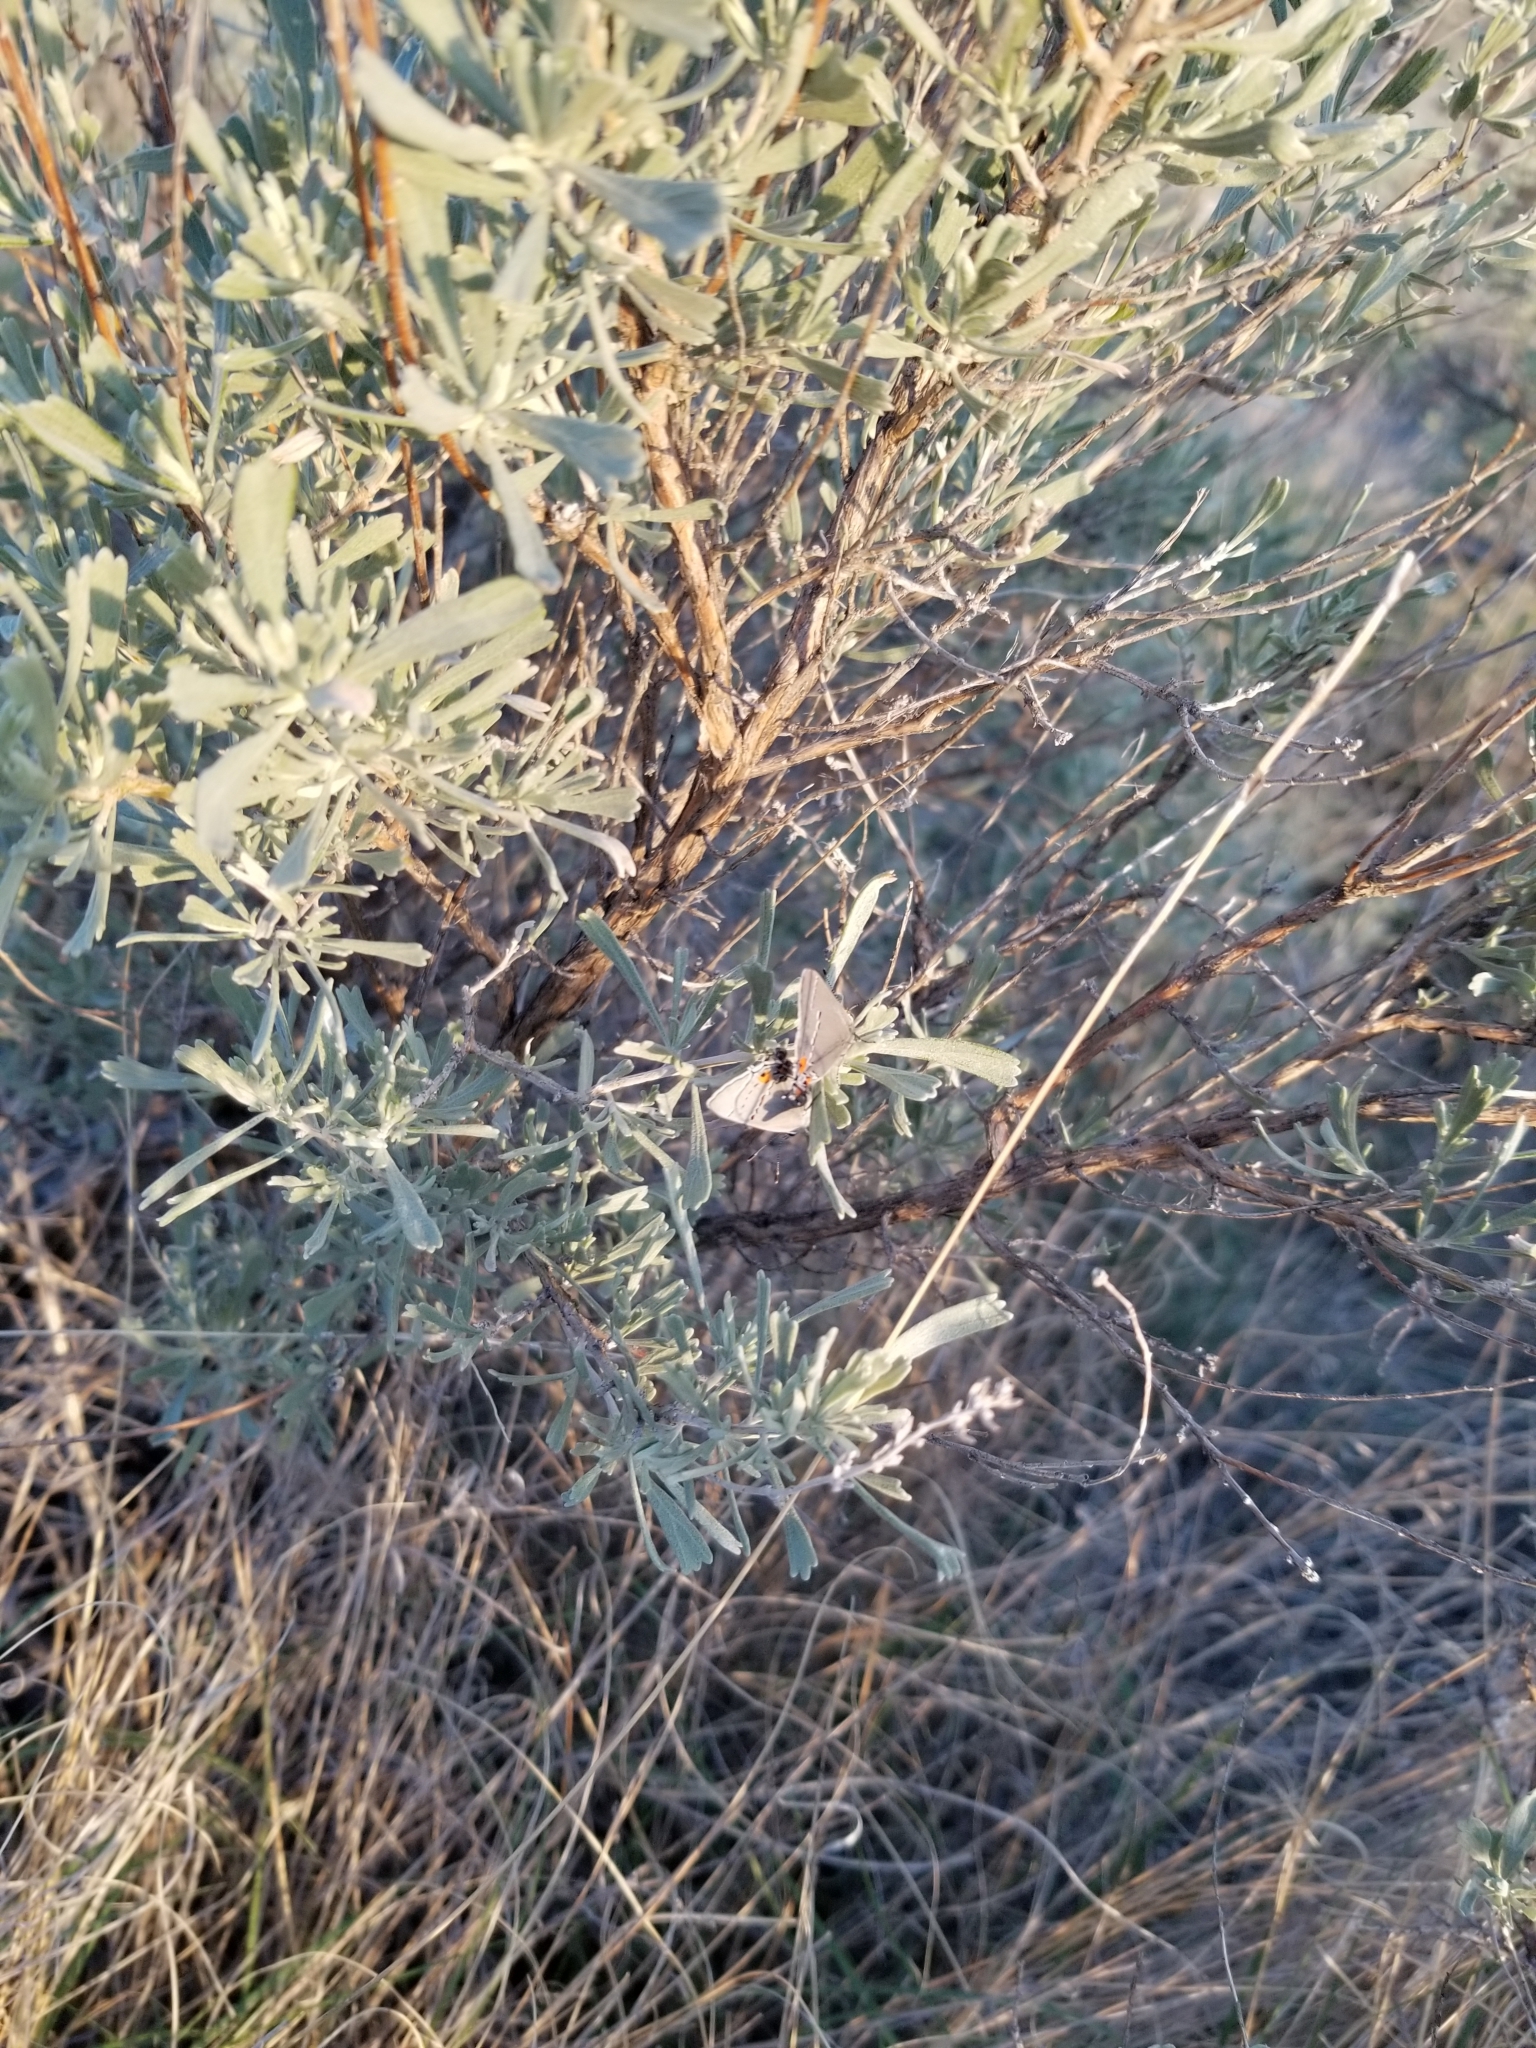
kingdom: Animalia
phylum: Arthropoda
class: Insecta
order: Lepidoptera
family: Lycaenidae
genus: Strymon
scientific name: Strymon melinus
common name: Gray hairstreak
